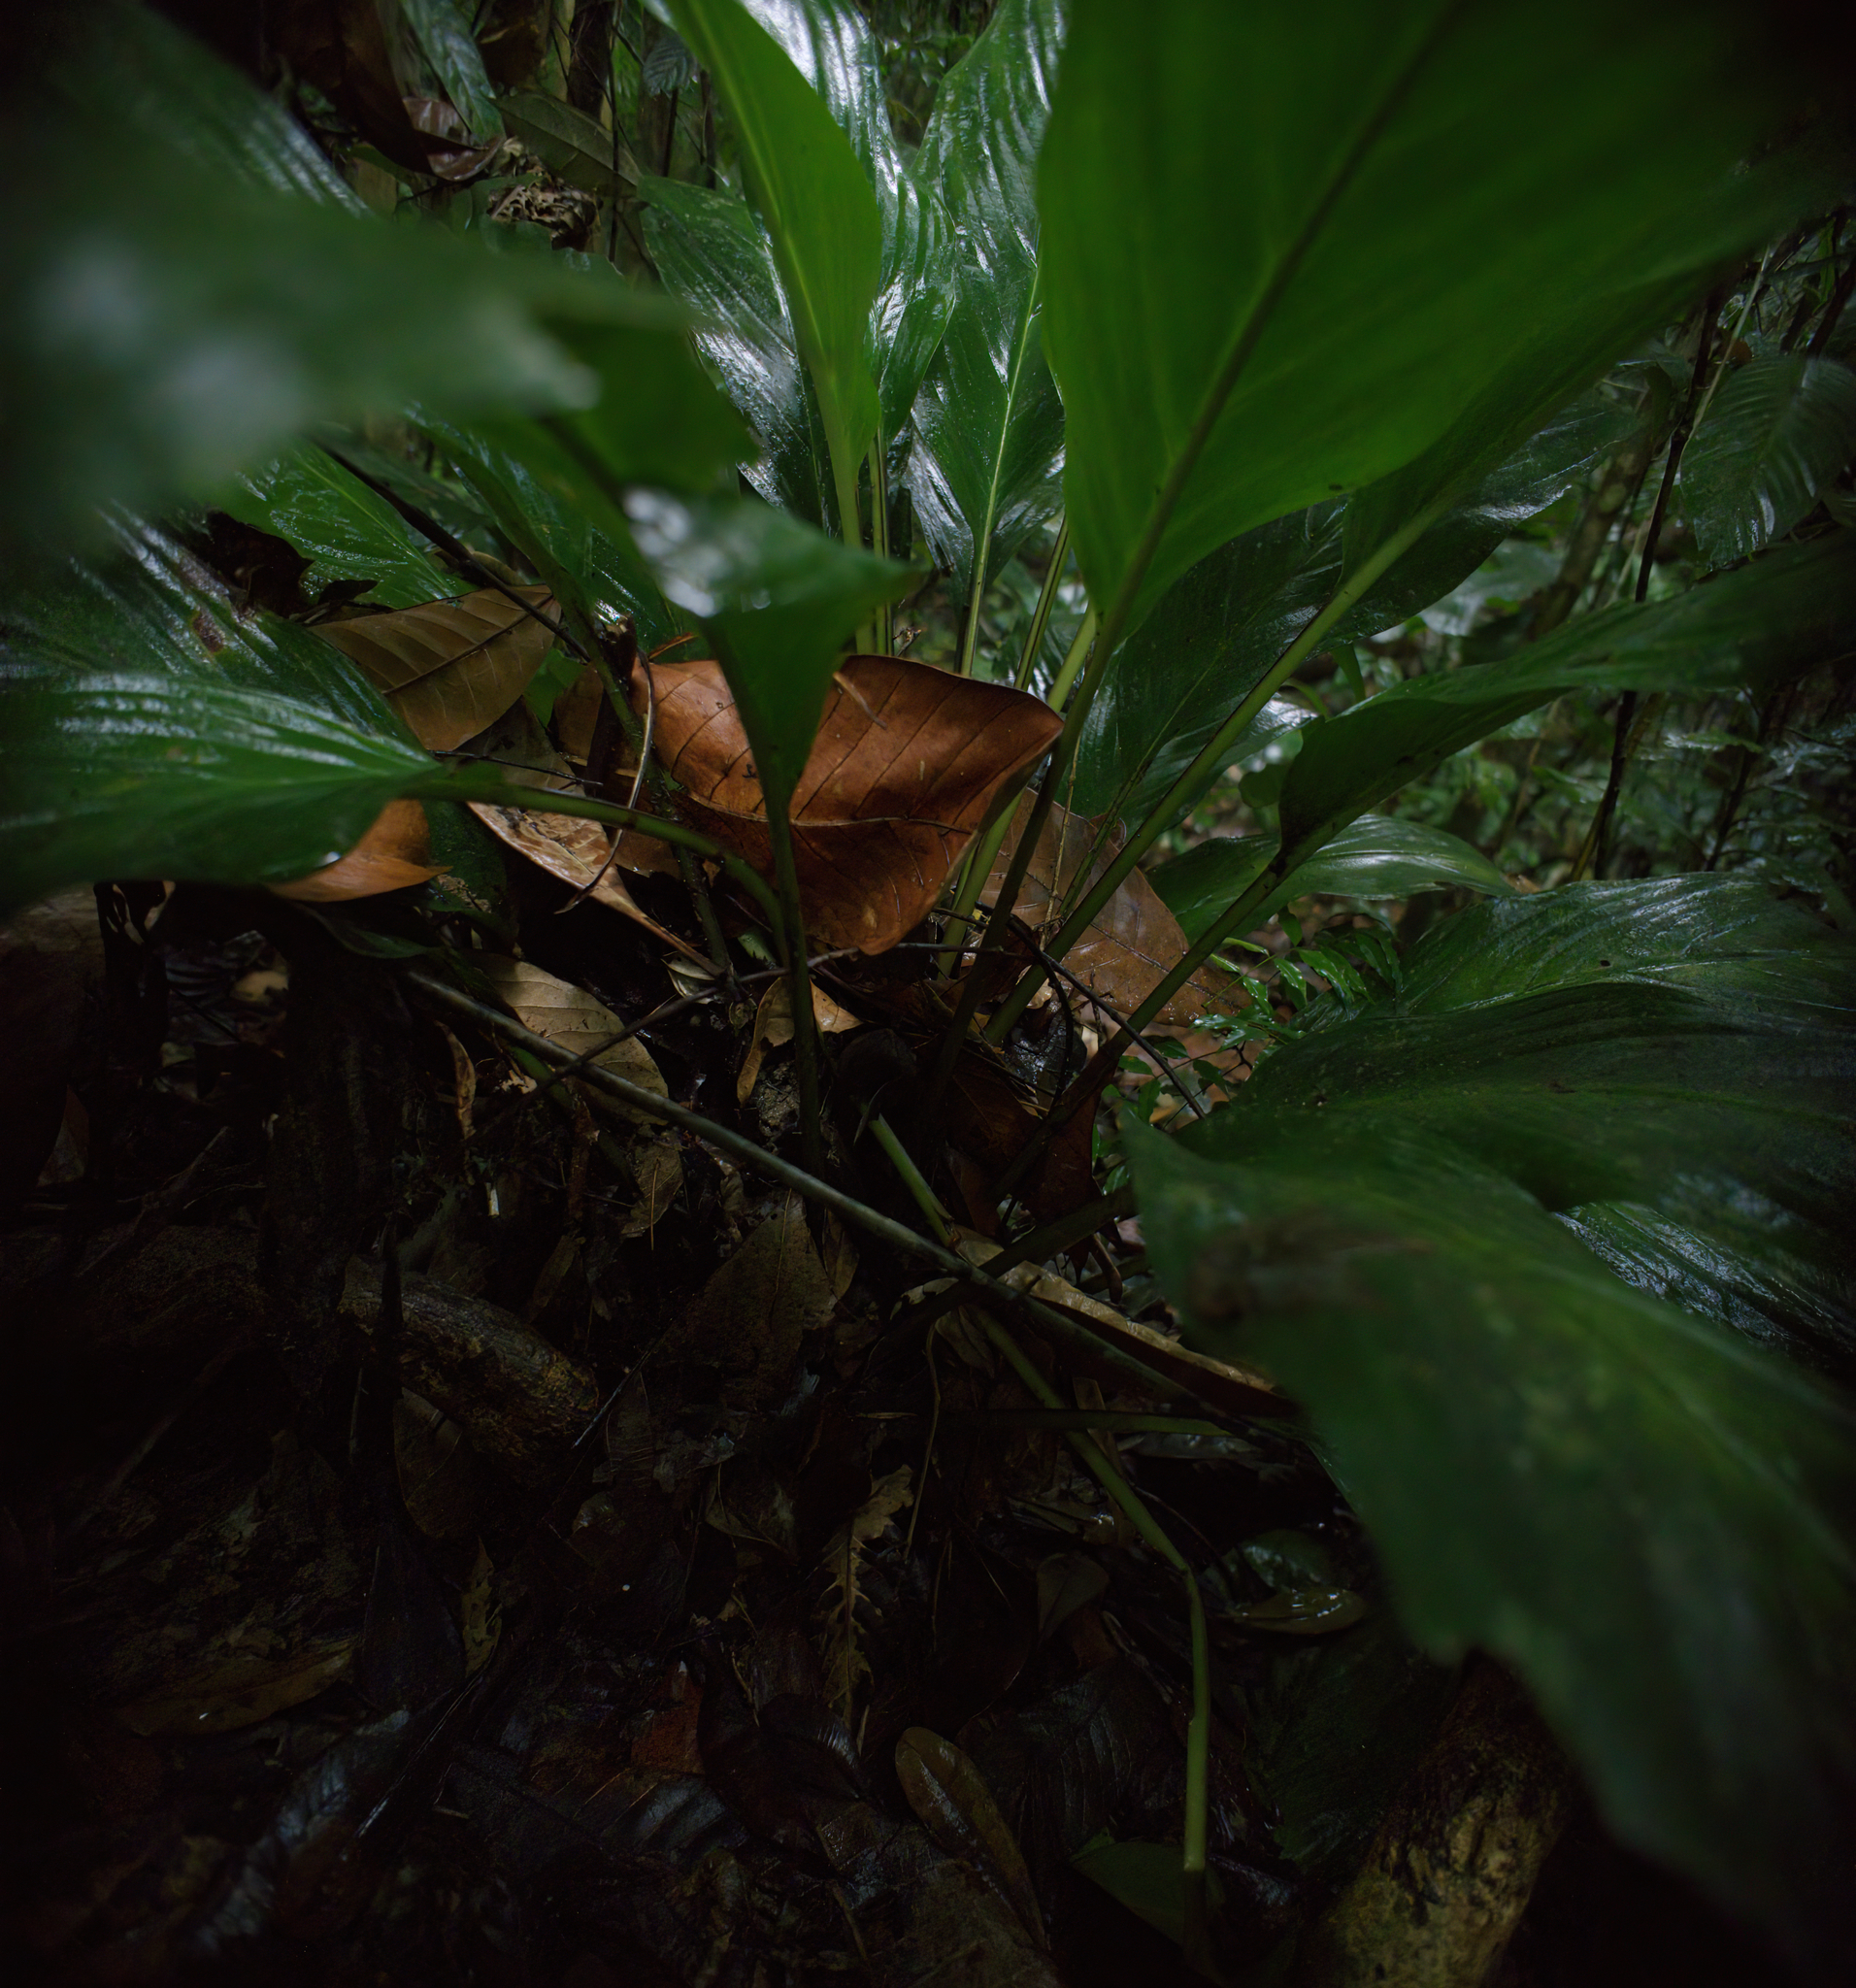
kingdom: Plantae
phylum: Tracheophyta
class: Liliopsida
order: Dioscoreales
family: Dioscoreaceae
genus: Tacca
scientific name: Tacca cristata
